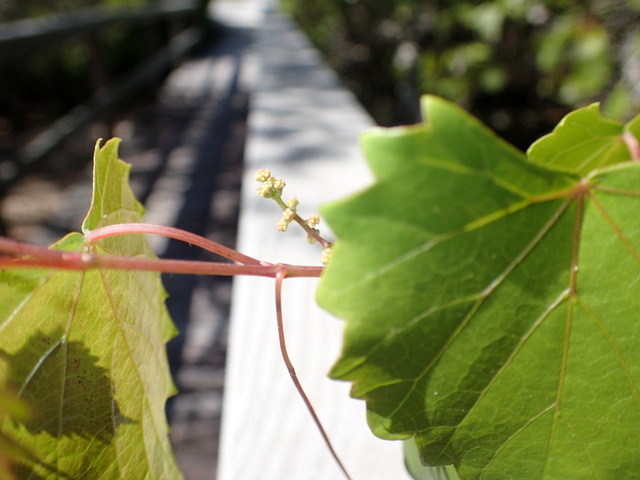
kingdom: Plantae
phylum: Tracheophyta
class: Magnoliopsida
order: Vitales
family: Vitaceae
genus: Vitis
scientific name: Vitis rotundifolia
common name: Muscadine grape
